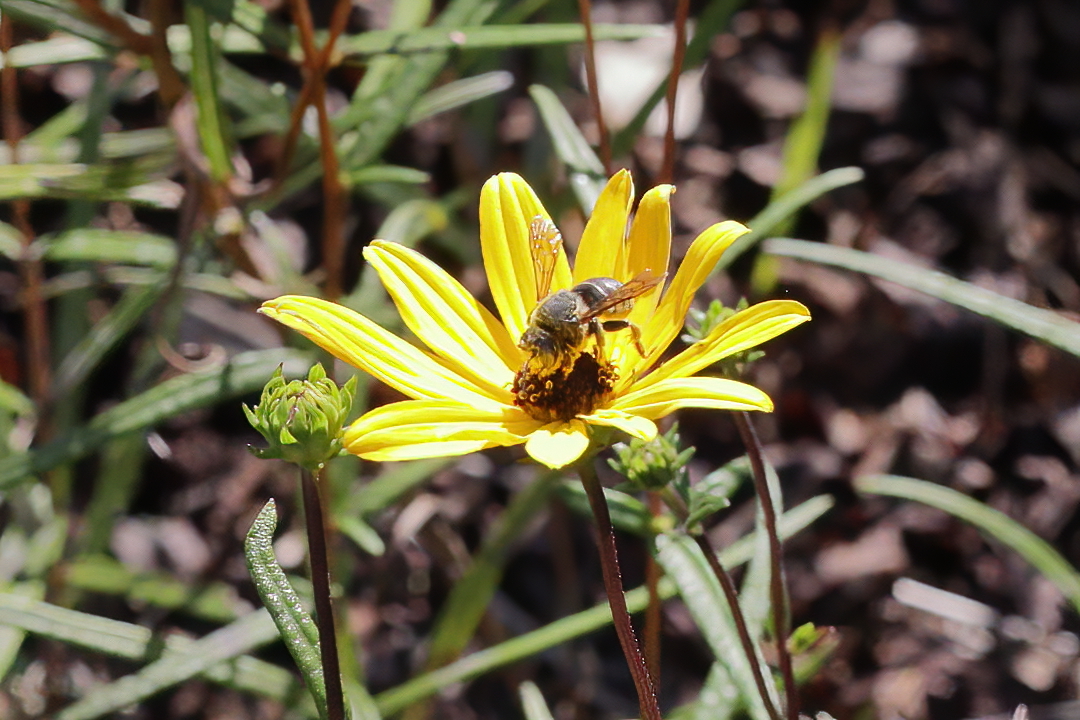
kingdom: Animalia
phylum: Arthropoda
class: Insecta
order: Hymenoptera
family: Megachilidae
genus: Trachusa
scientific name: Trachusa zebrata
